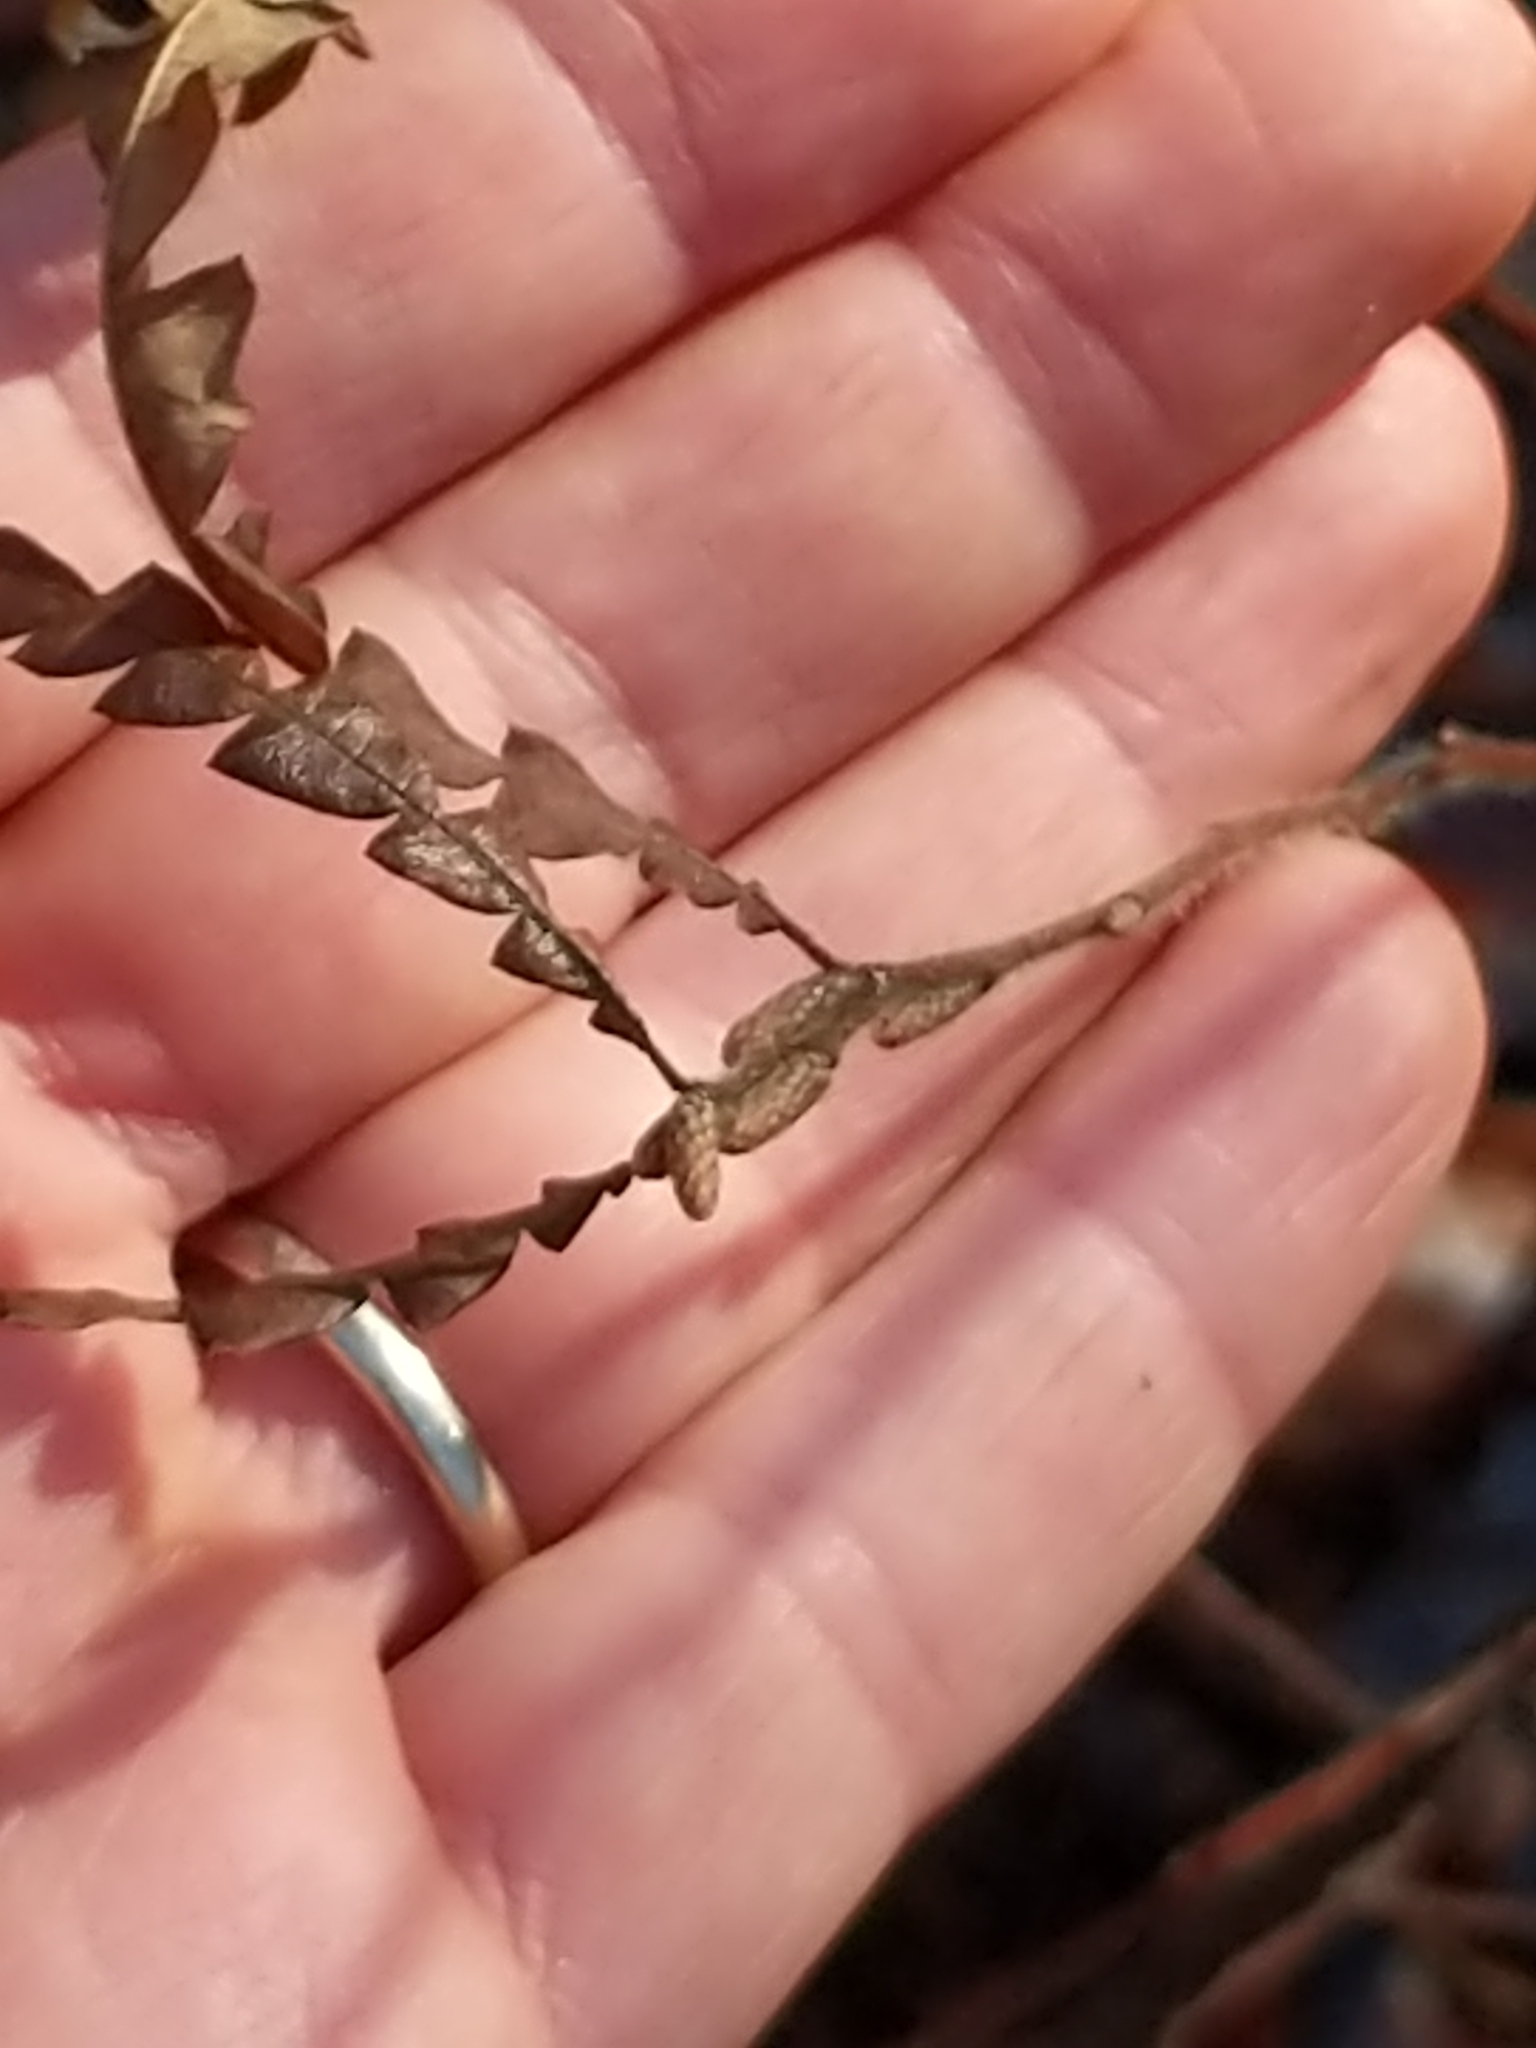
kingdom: Plantae
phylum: Tracheophyta
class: Magnoliopsida
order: Fagales
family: Myricaceae
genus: Comptonia
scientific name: Comptonia peregrina
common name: Sweet-fern
